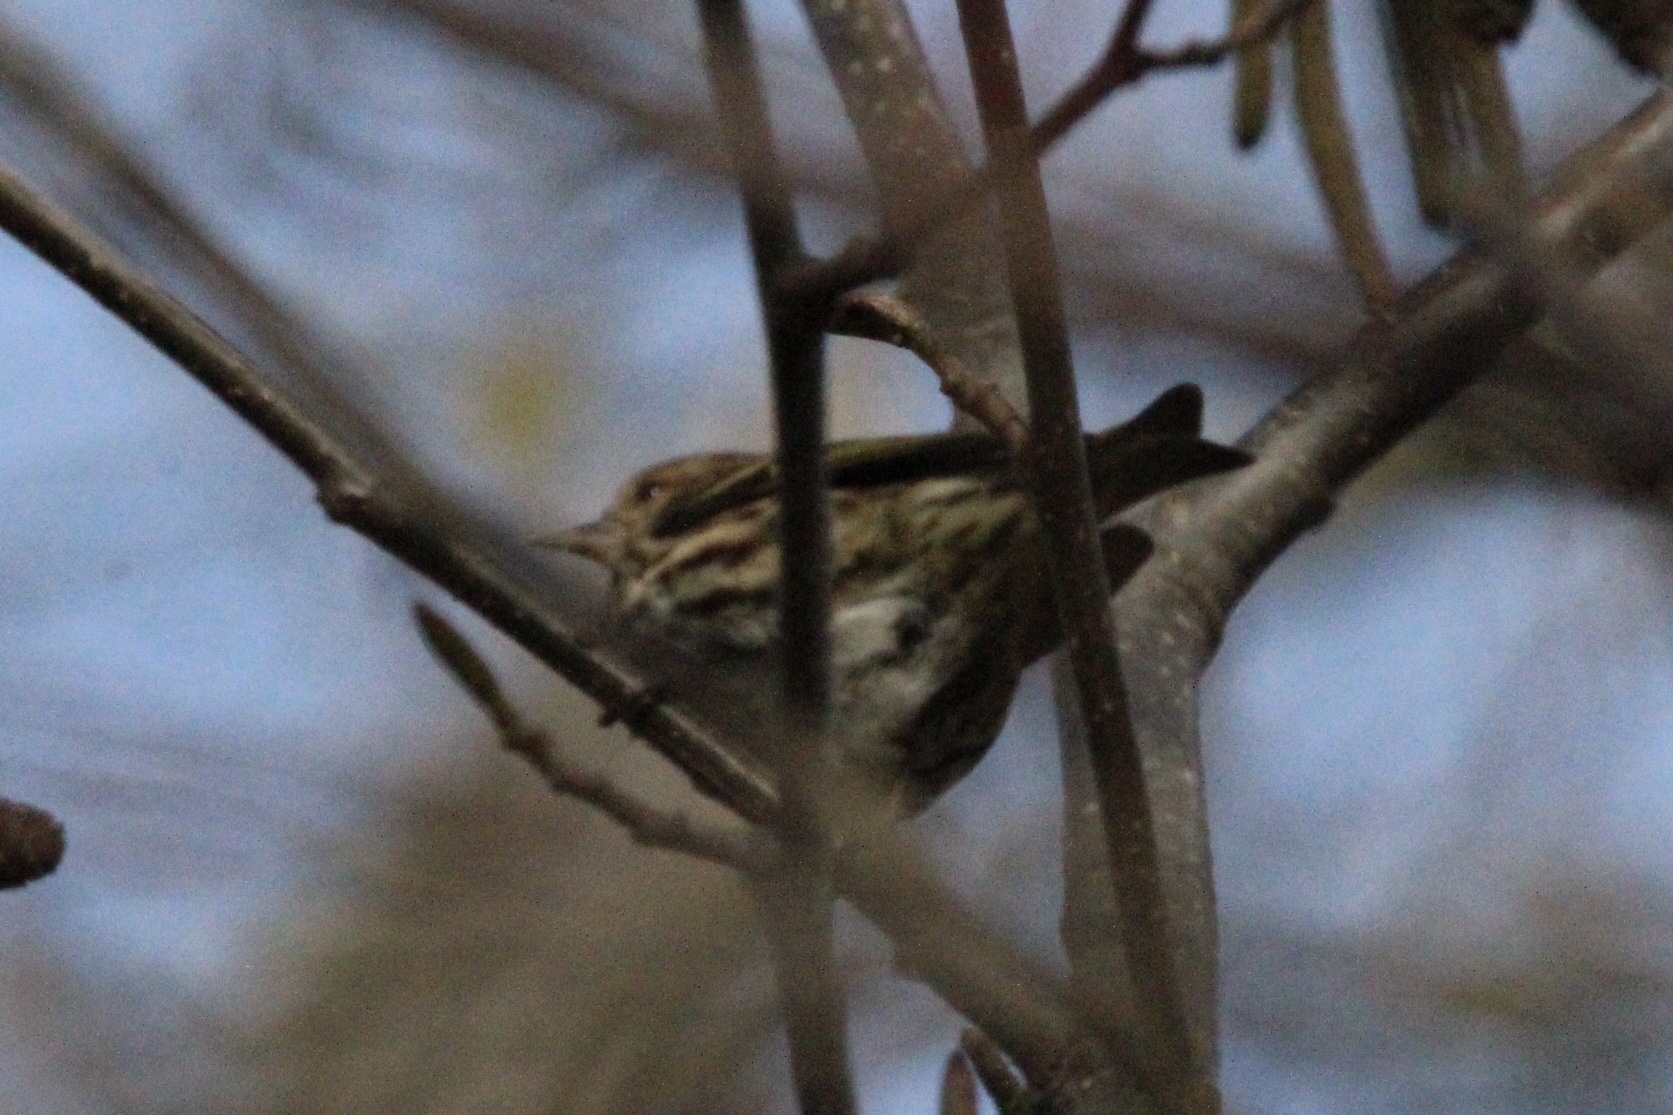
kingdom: Animalia
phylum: Chordata
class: Aves
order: Passeriformes
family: Fringillidae
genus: Spinus
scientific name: Spinus pinus
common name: Pine siskin
